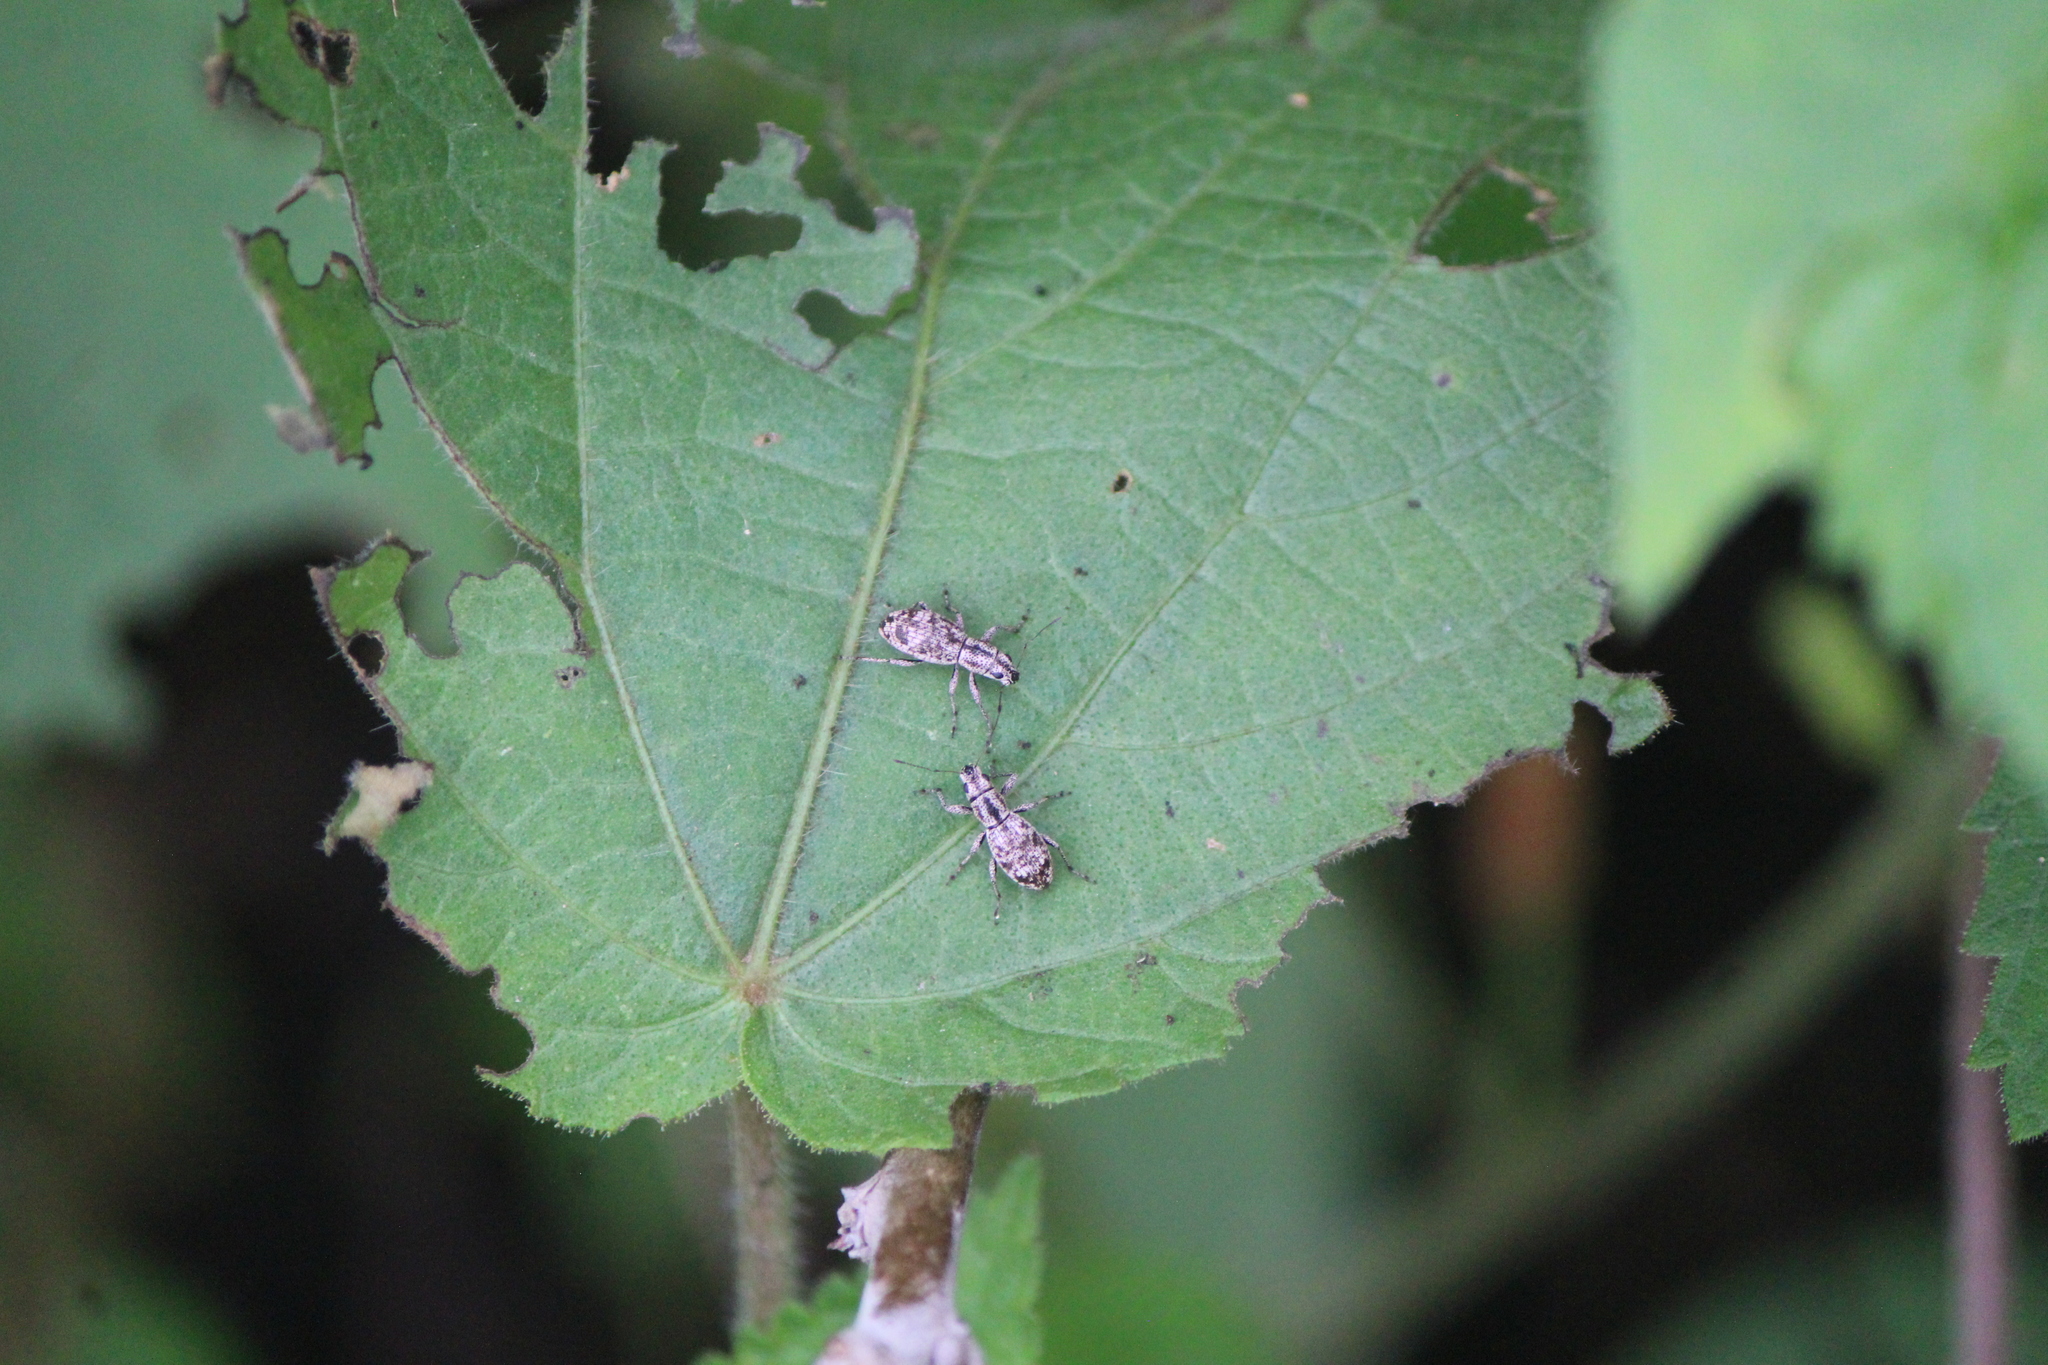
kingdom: Animalia
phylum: Arthropoda
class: Insecta
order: Coleoptera
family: Curculionidae
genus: Mitostylus
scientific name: Mitostylus setosus
